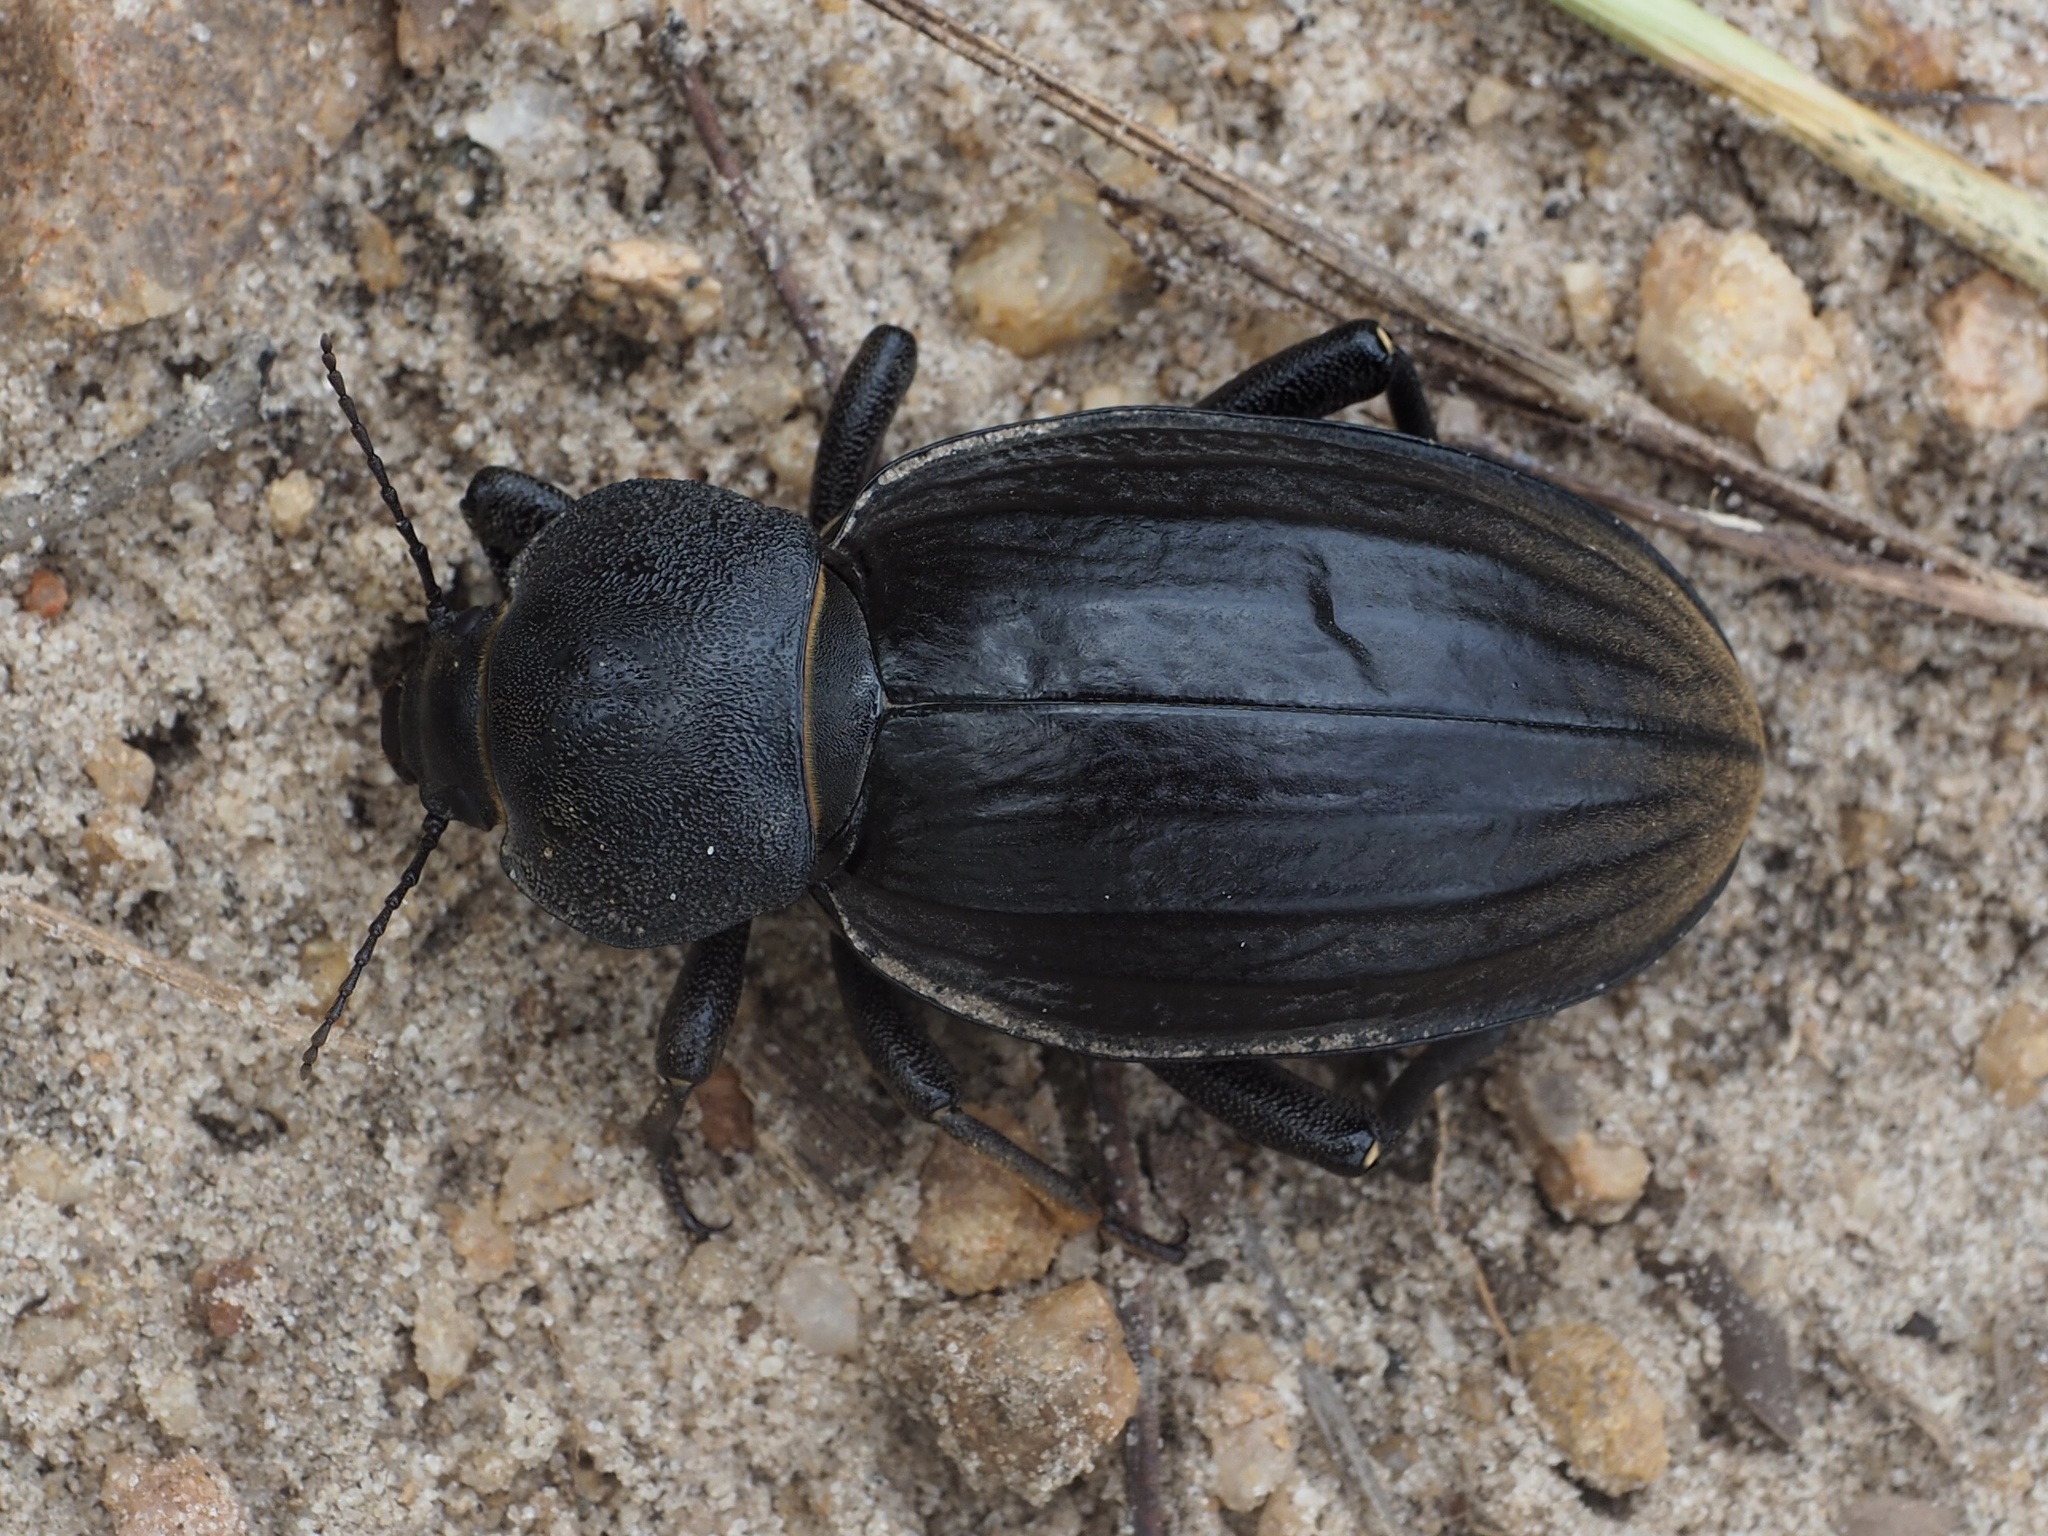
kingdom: Animalia
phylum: Arthropoda
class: Insecta
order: Coleoptera
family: Tenebrionidae
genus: Tarsocnodes
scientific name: Tarsocnodes molossa
